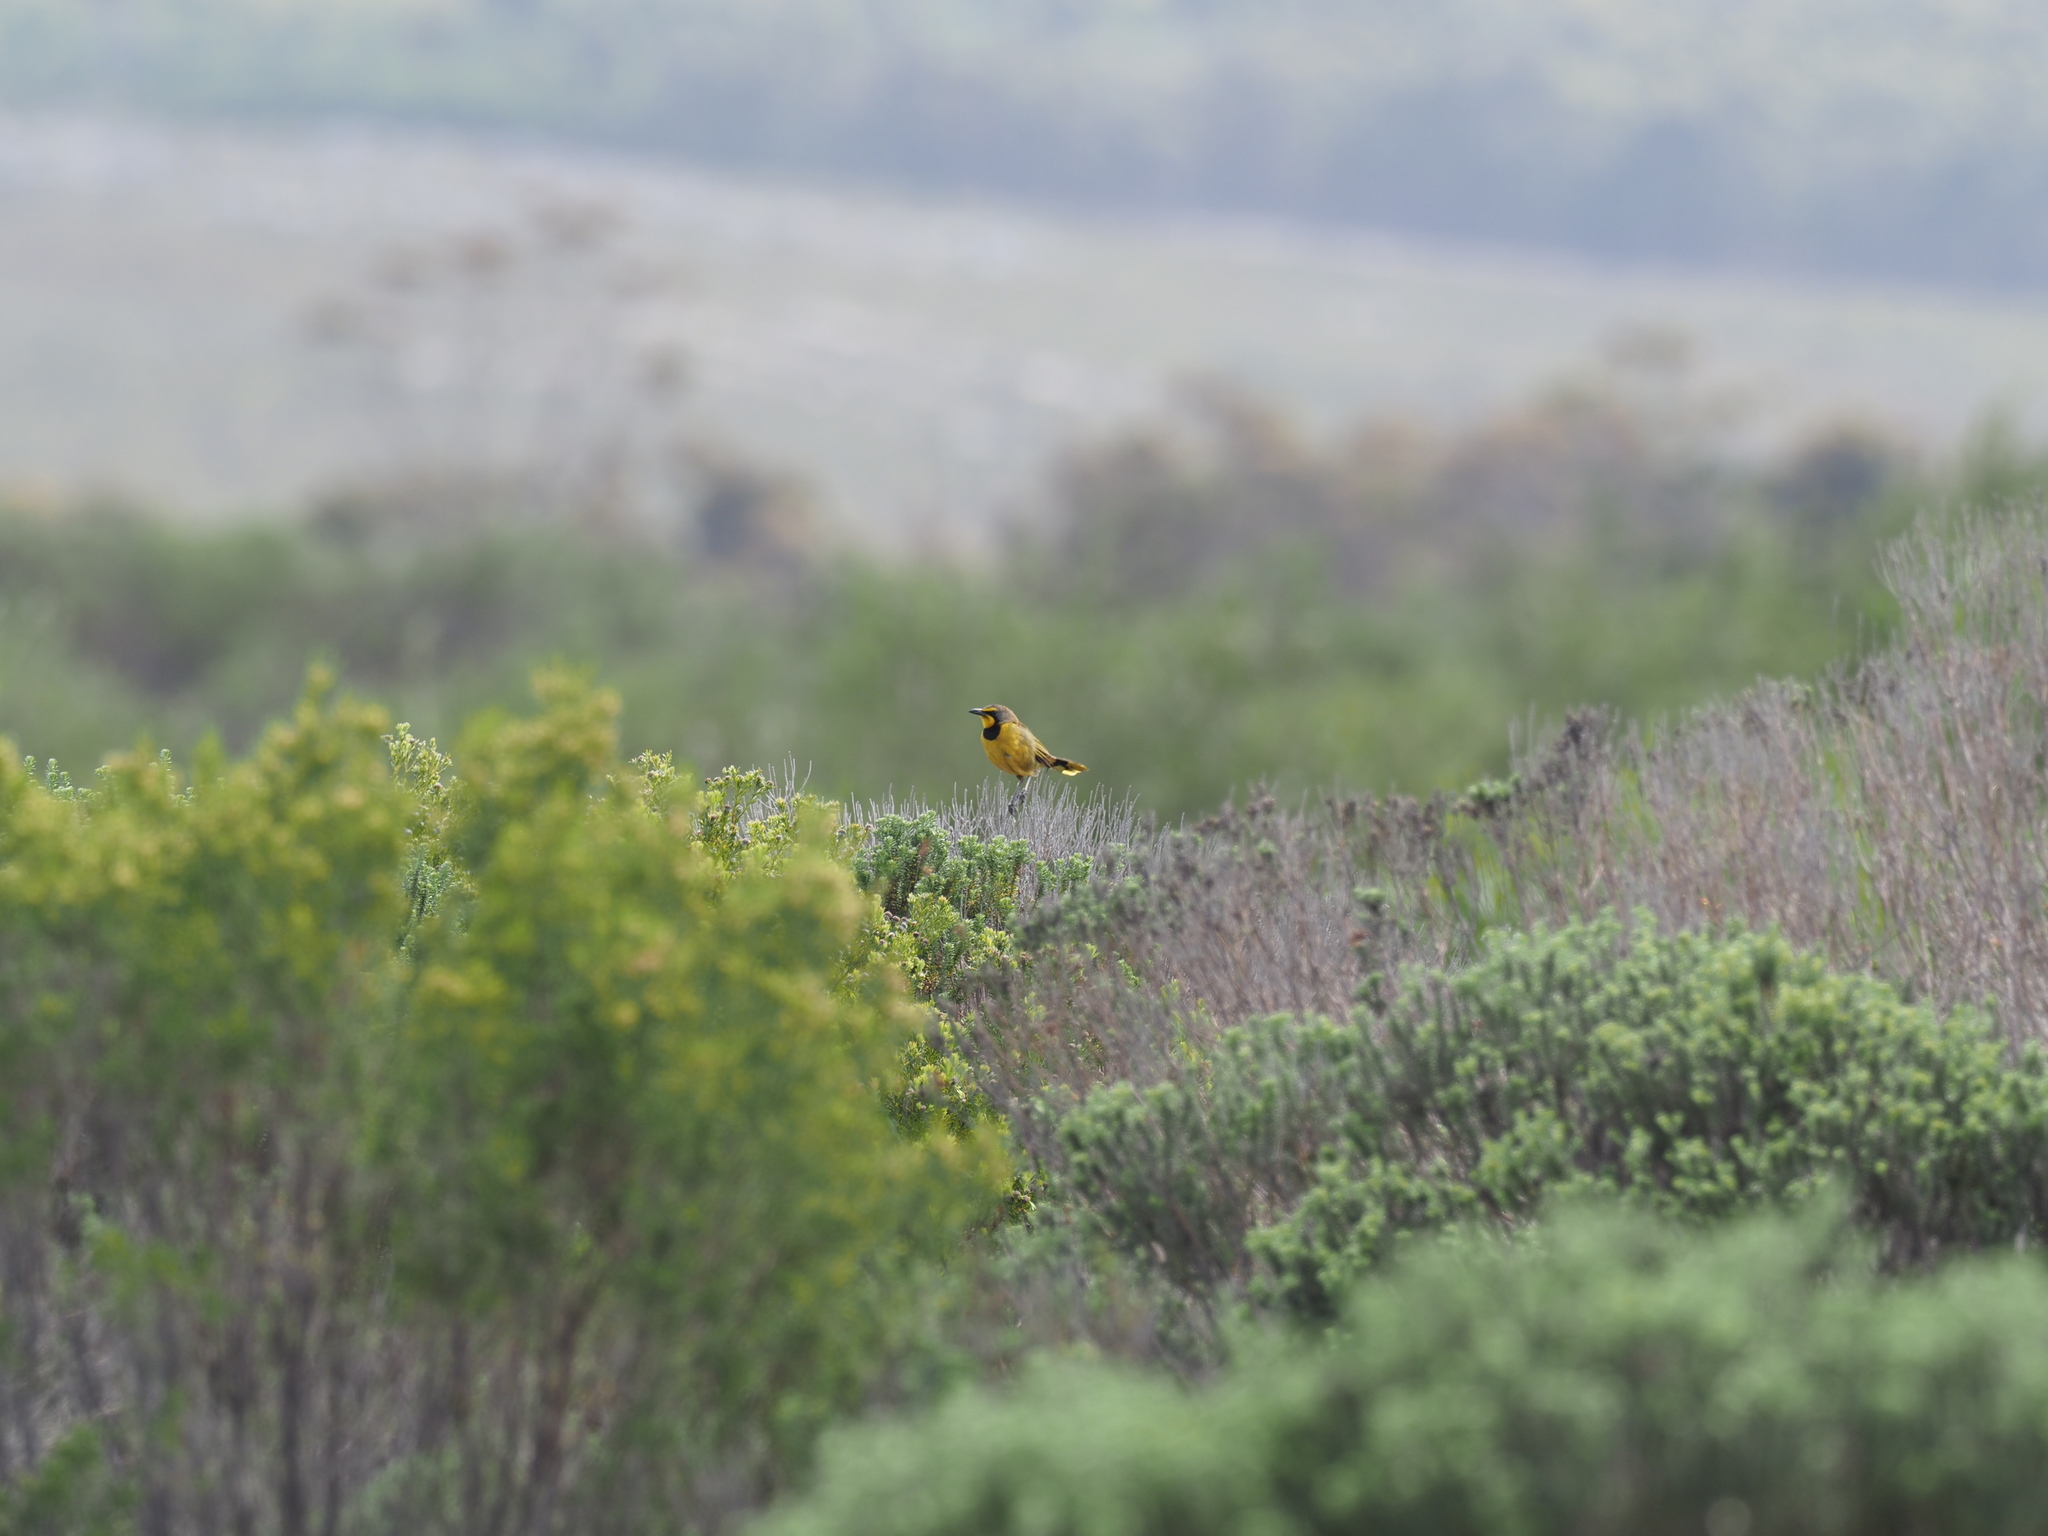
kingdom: Animalia
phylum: Chordata
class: Aves
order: Passeriformes
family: Malaconotidae
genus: Telophorus
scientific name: Telophorus zeylonus
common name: Bokmakierie
